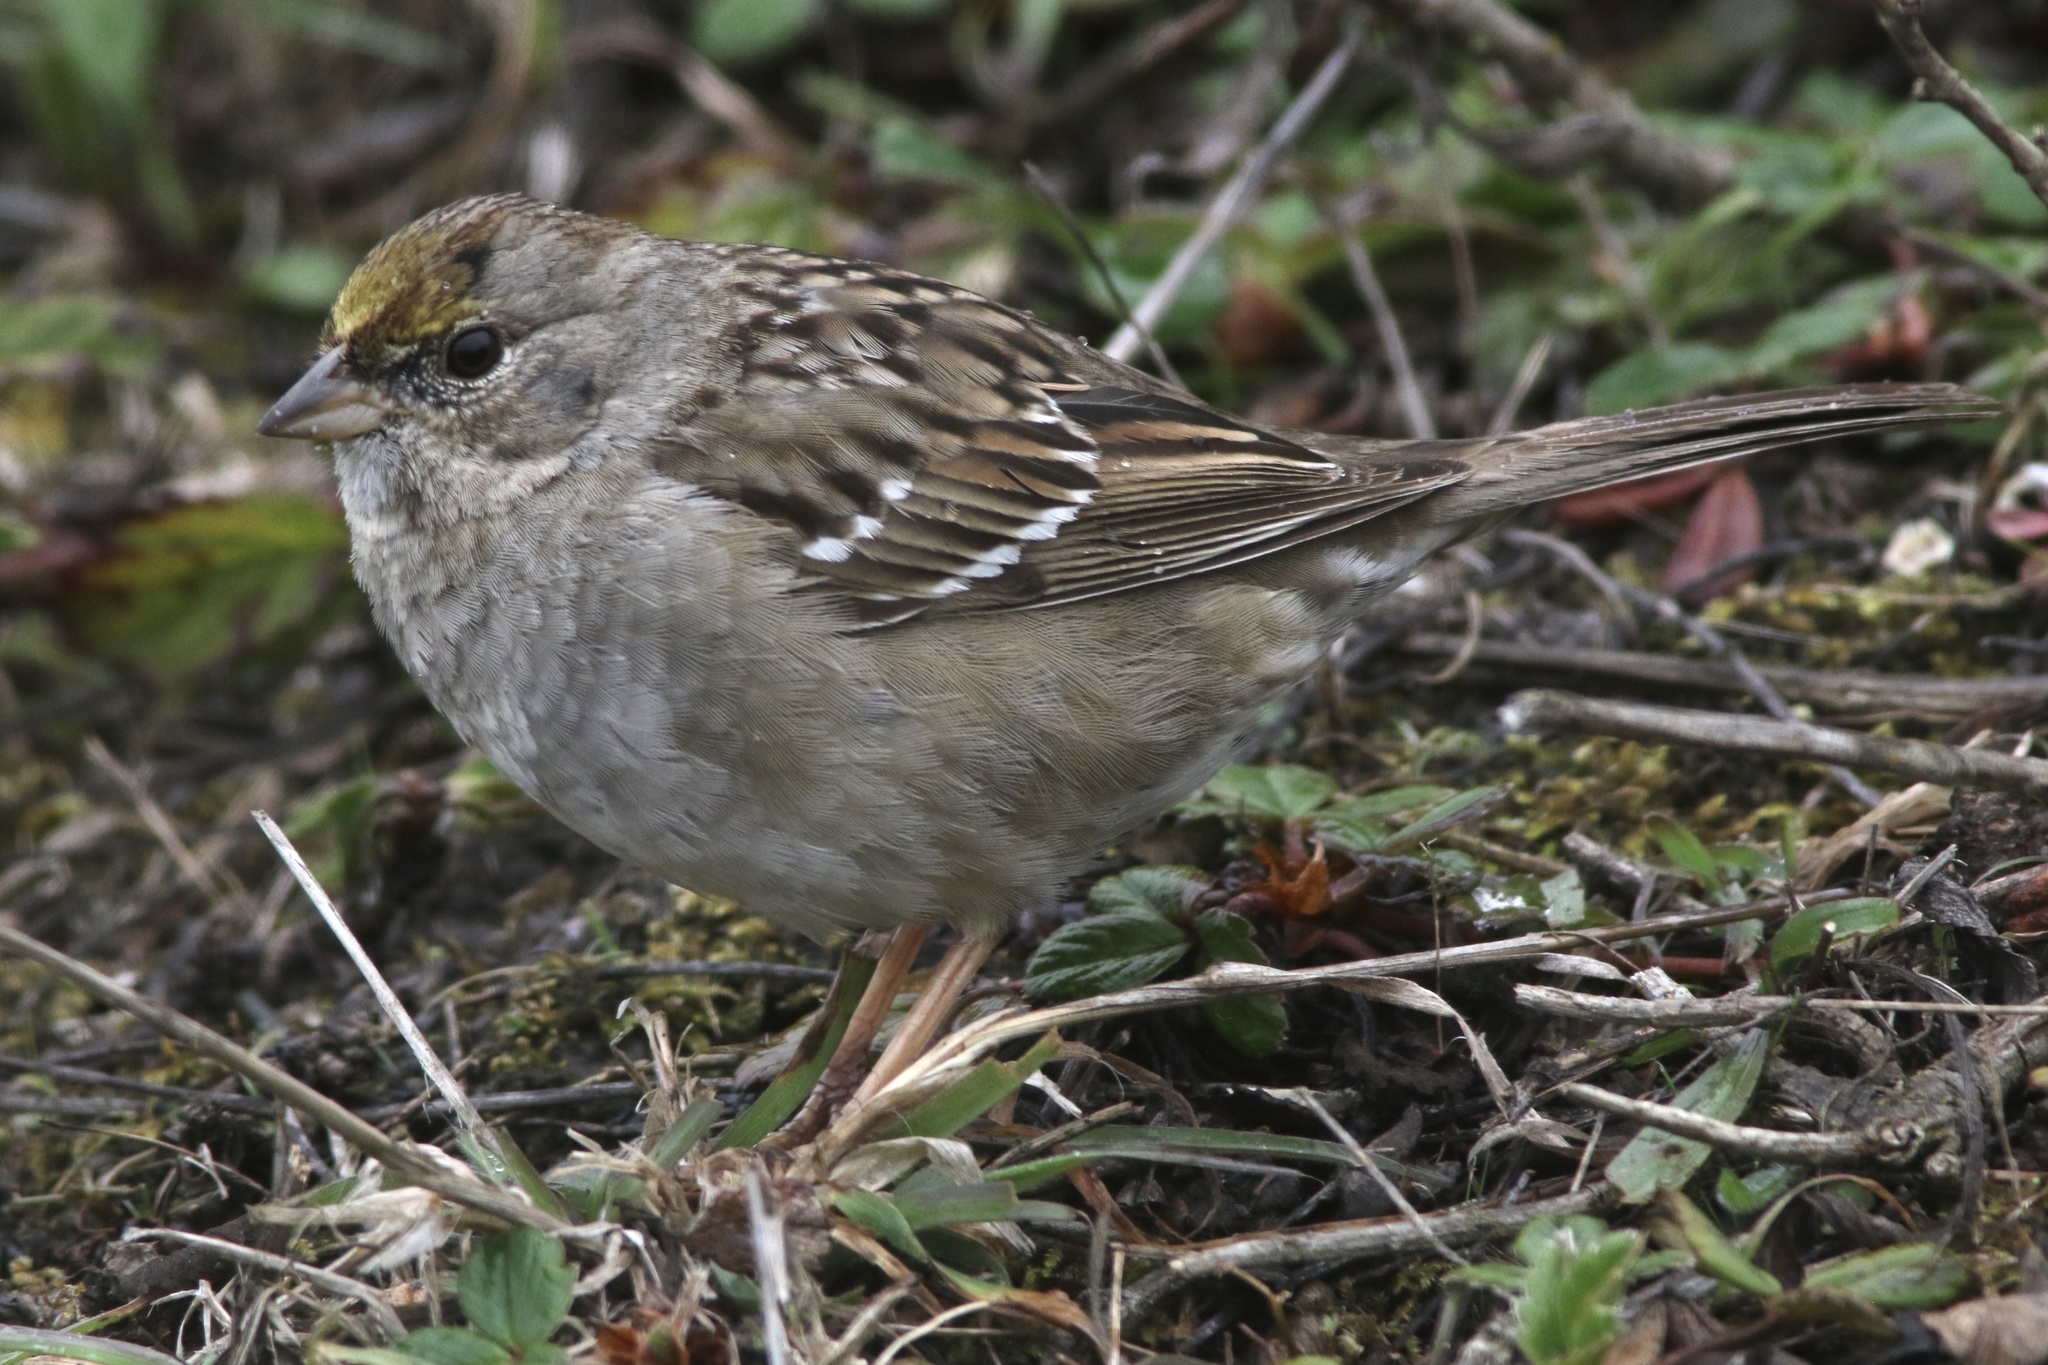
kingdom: Animalia
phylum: Chordata
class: Aves
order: Passeriformes
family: Passerellidae
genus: Zonotrichia
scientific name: Zonotrichia atricapilla
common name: Golden-crowned sparrow
